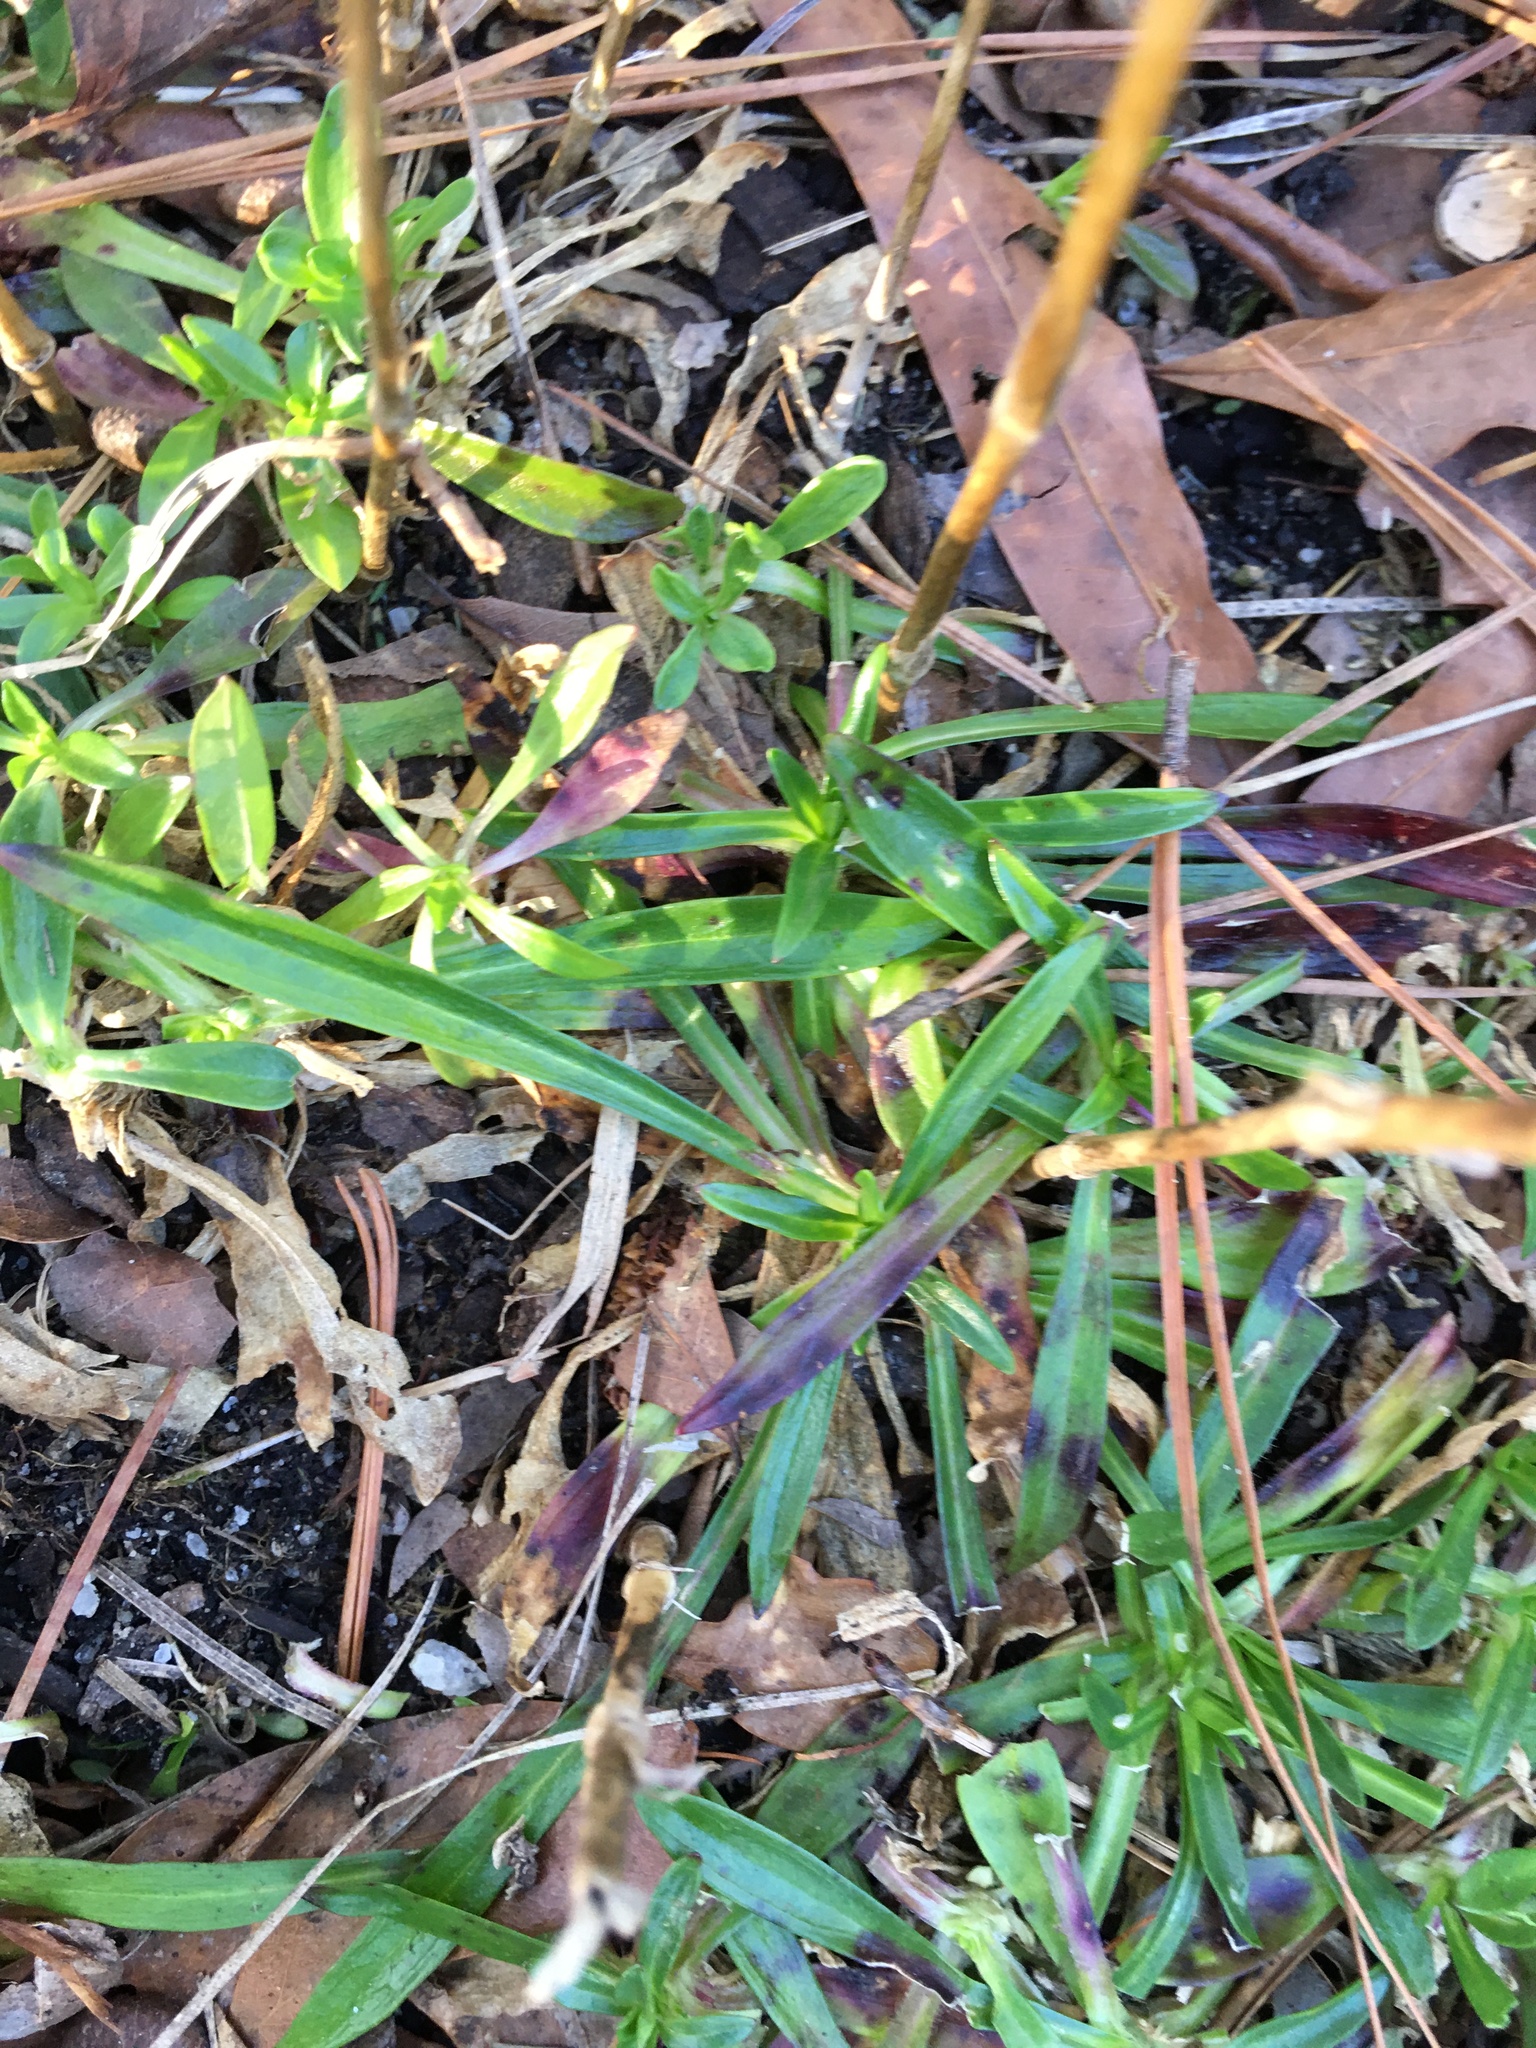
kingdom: Plantae
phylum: Tracheophyta
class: Magnoliopsida
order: Caryophyllales
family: Caryophyllaceae
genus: Dianthus
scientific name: Dianthus armeria
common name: Deptford pink
